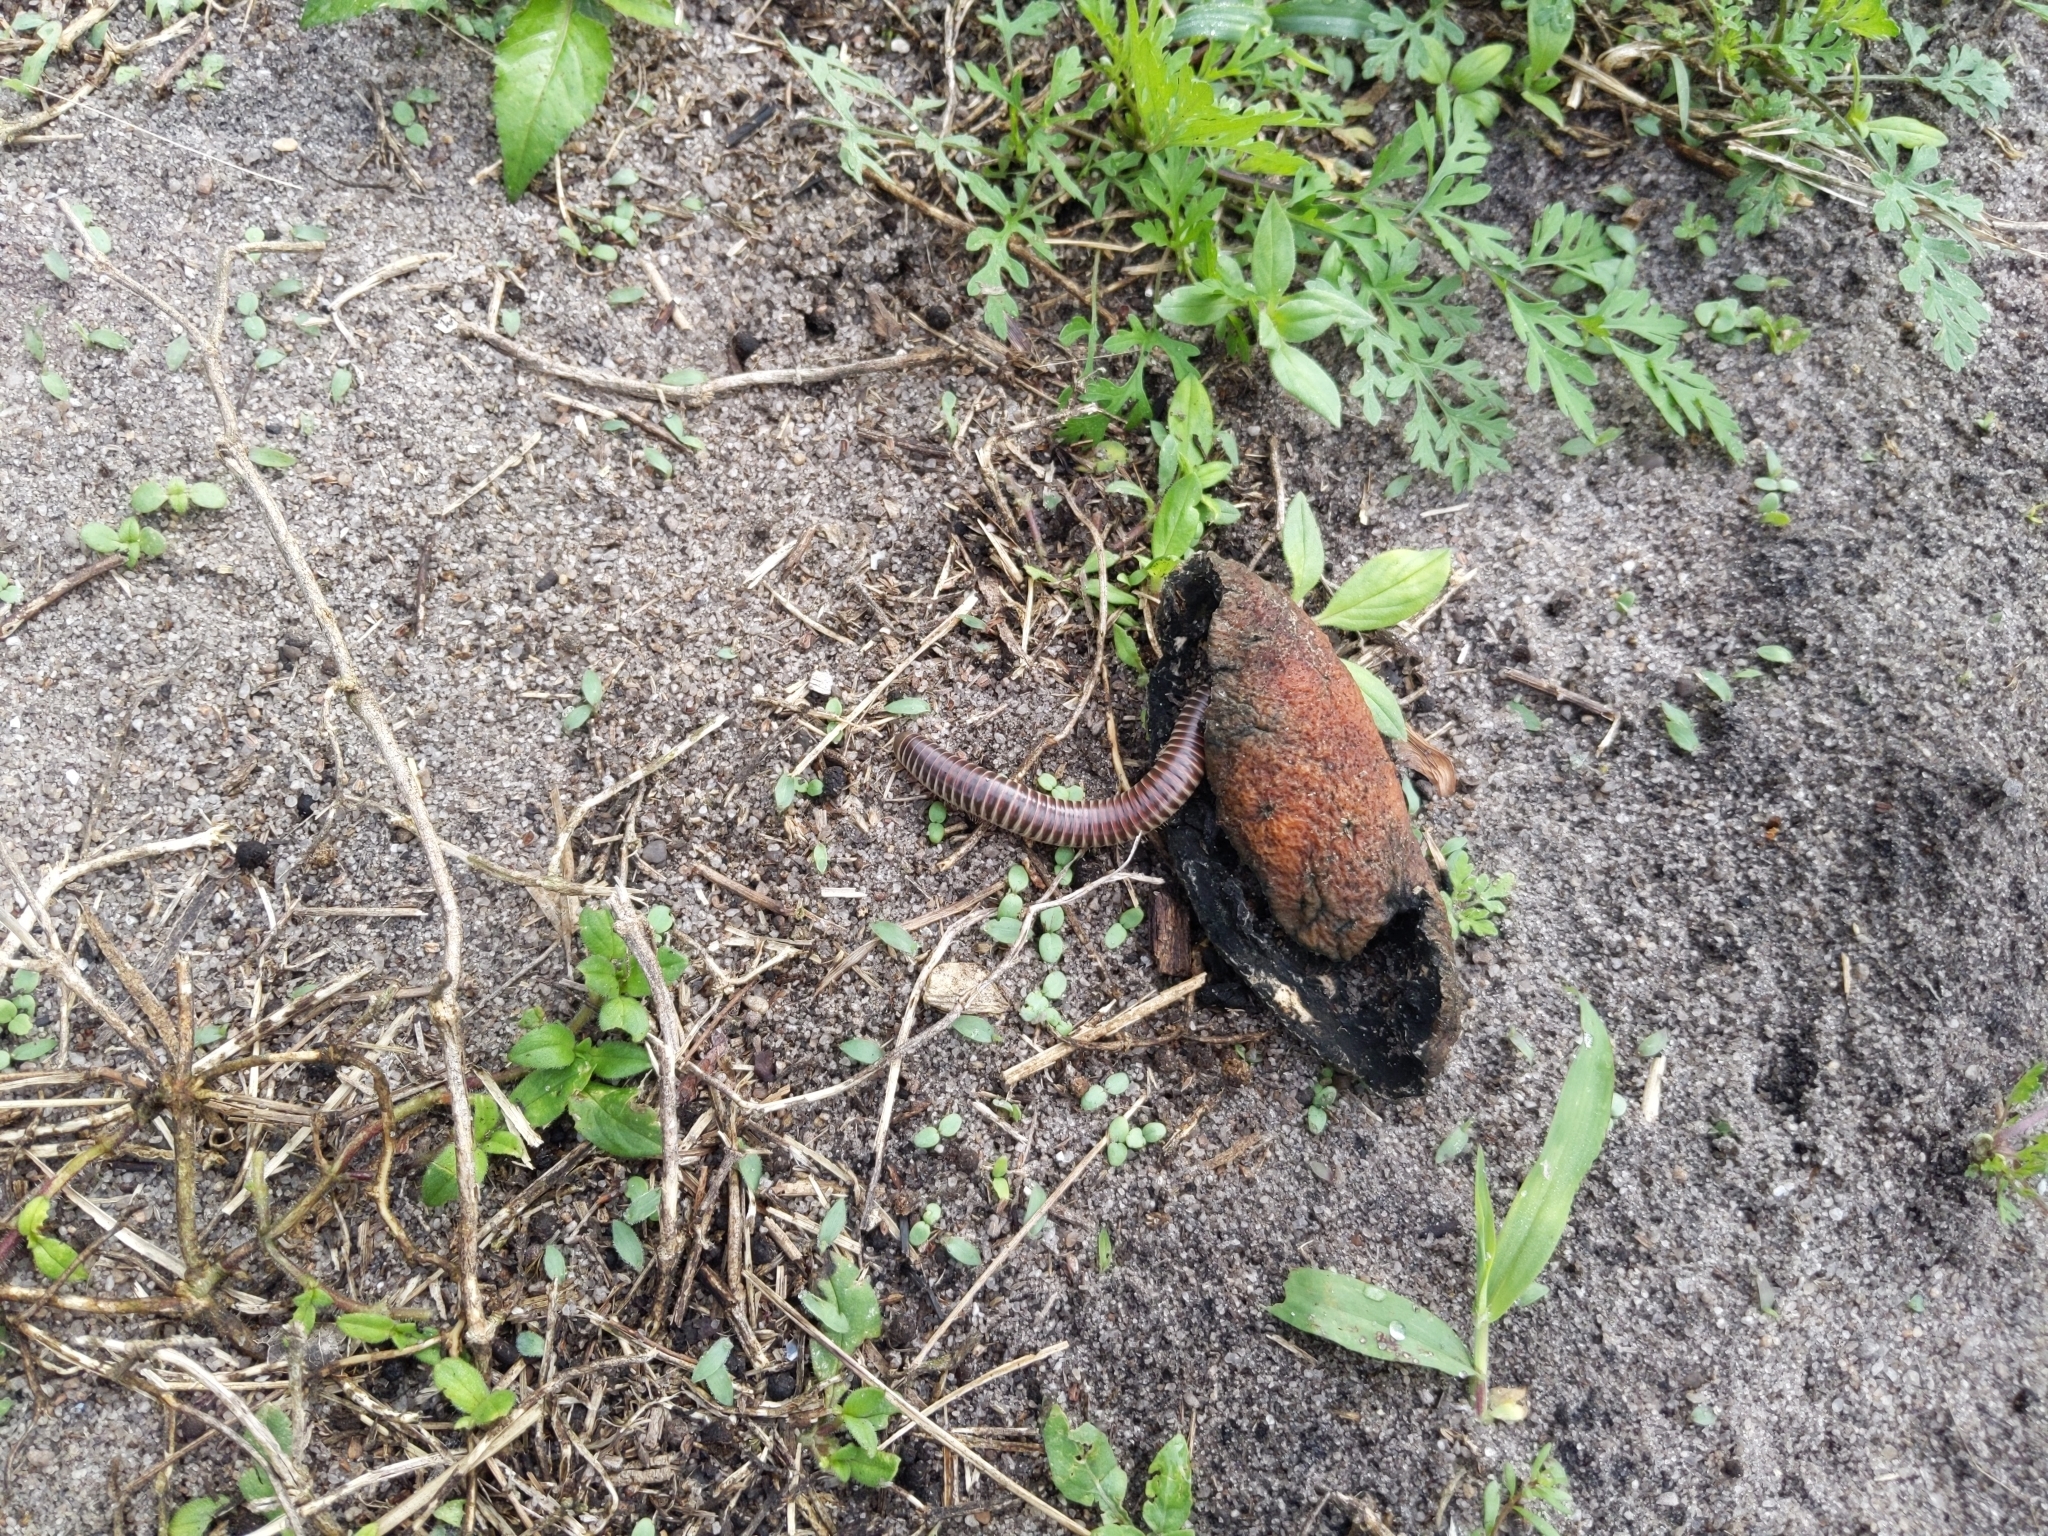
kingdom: Animalia
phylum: Arthropoda
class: Diplopoda
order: Spirobolida
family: Spirobolidae
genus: Chicobolus
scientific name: Chicobolus spinigerus
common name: Florida ivory millipede
